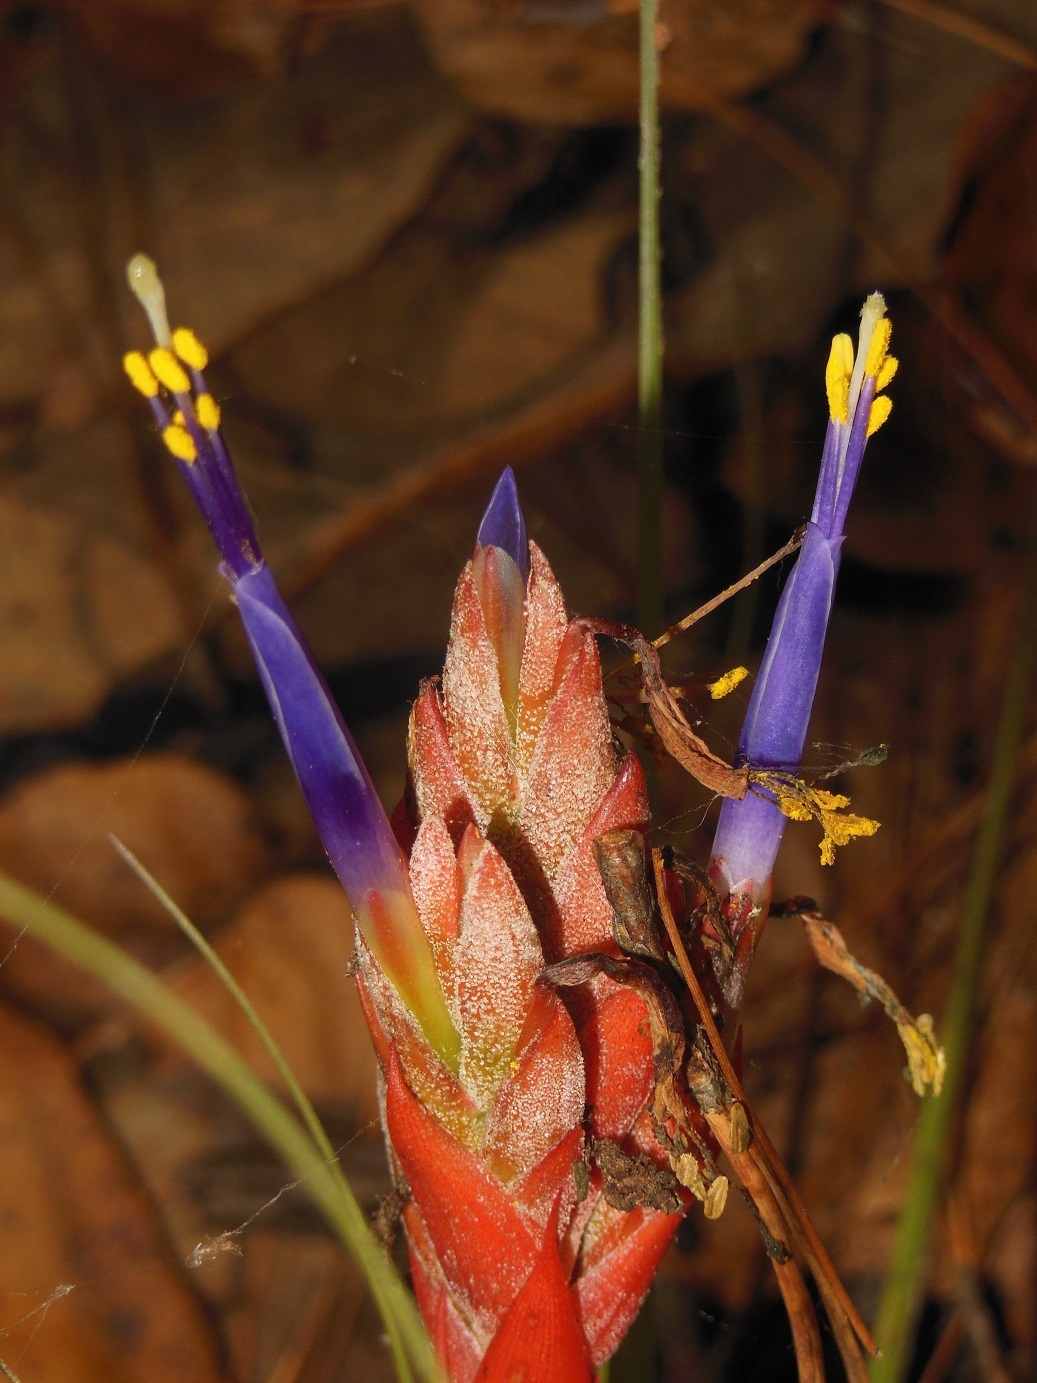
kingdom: Plantae
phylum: Tracheophyta
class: Liliopsida
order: Poales
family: Bromeliaceae
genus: Tillandsia
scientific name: Tillandsia rotundata
